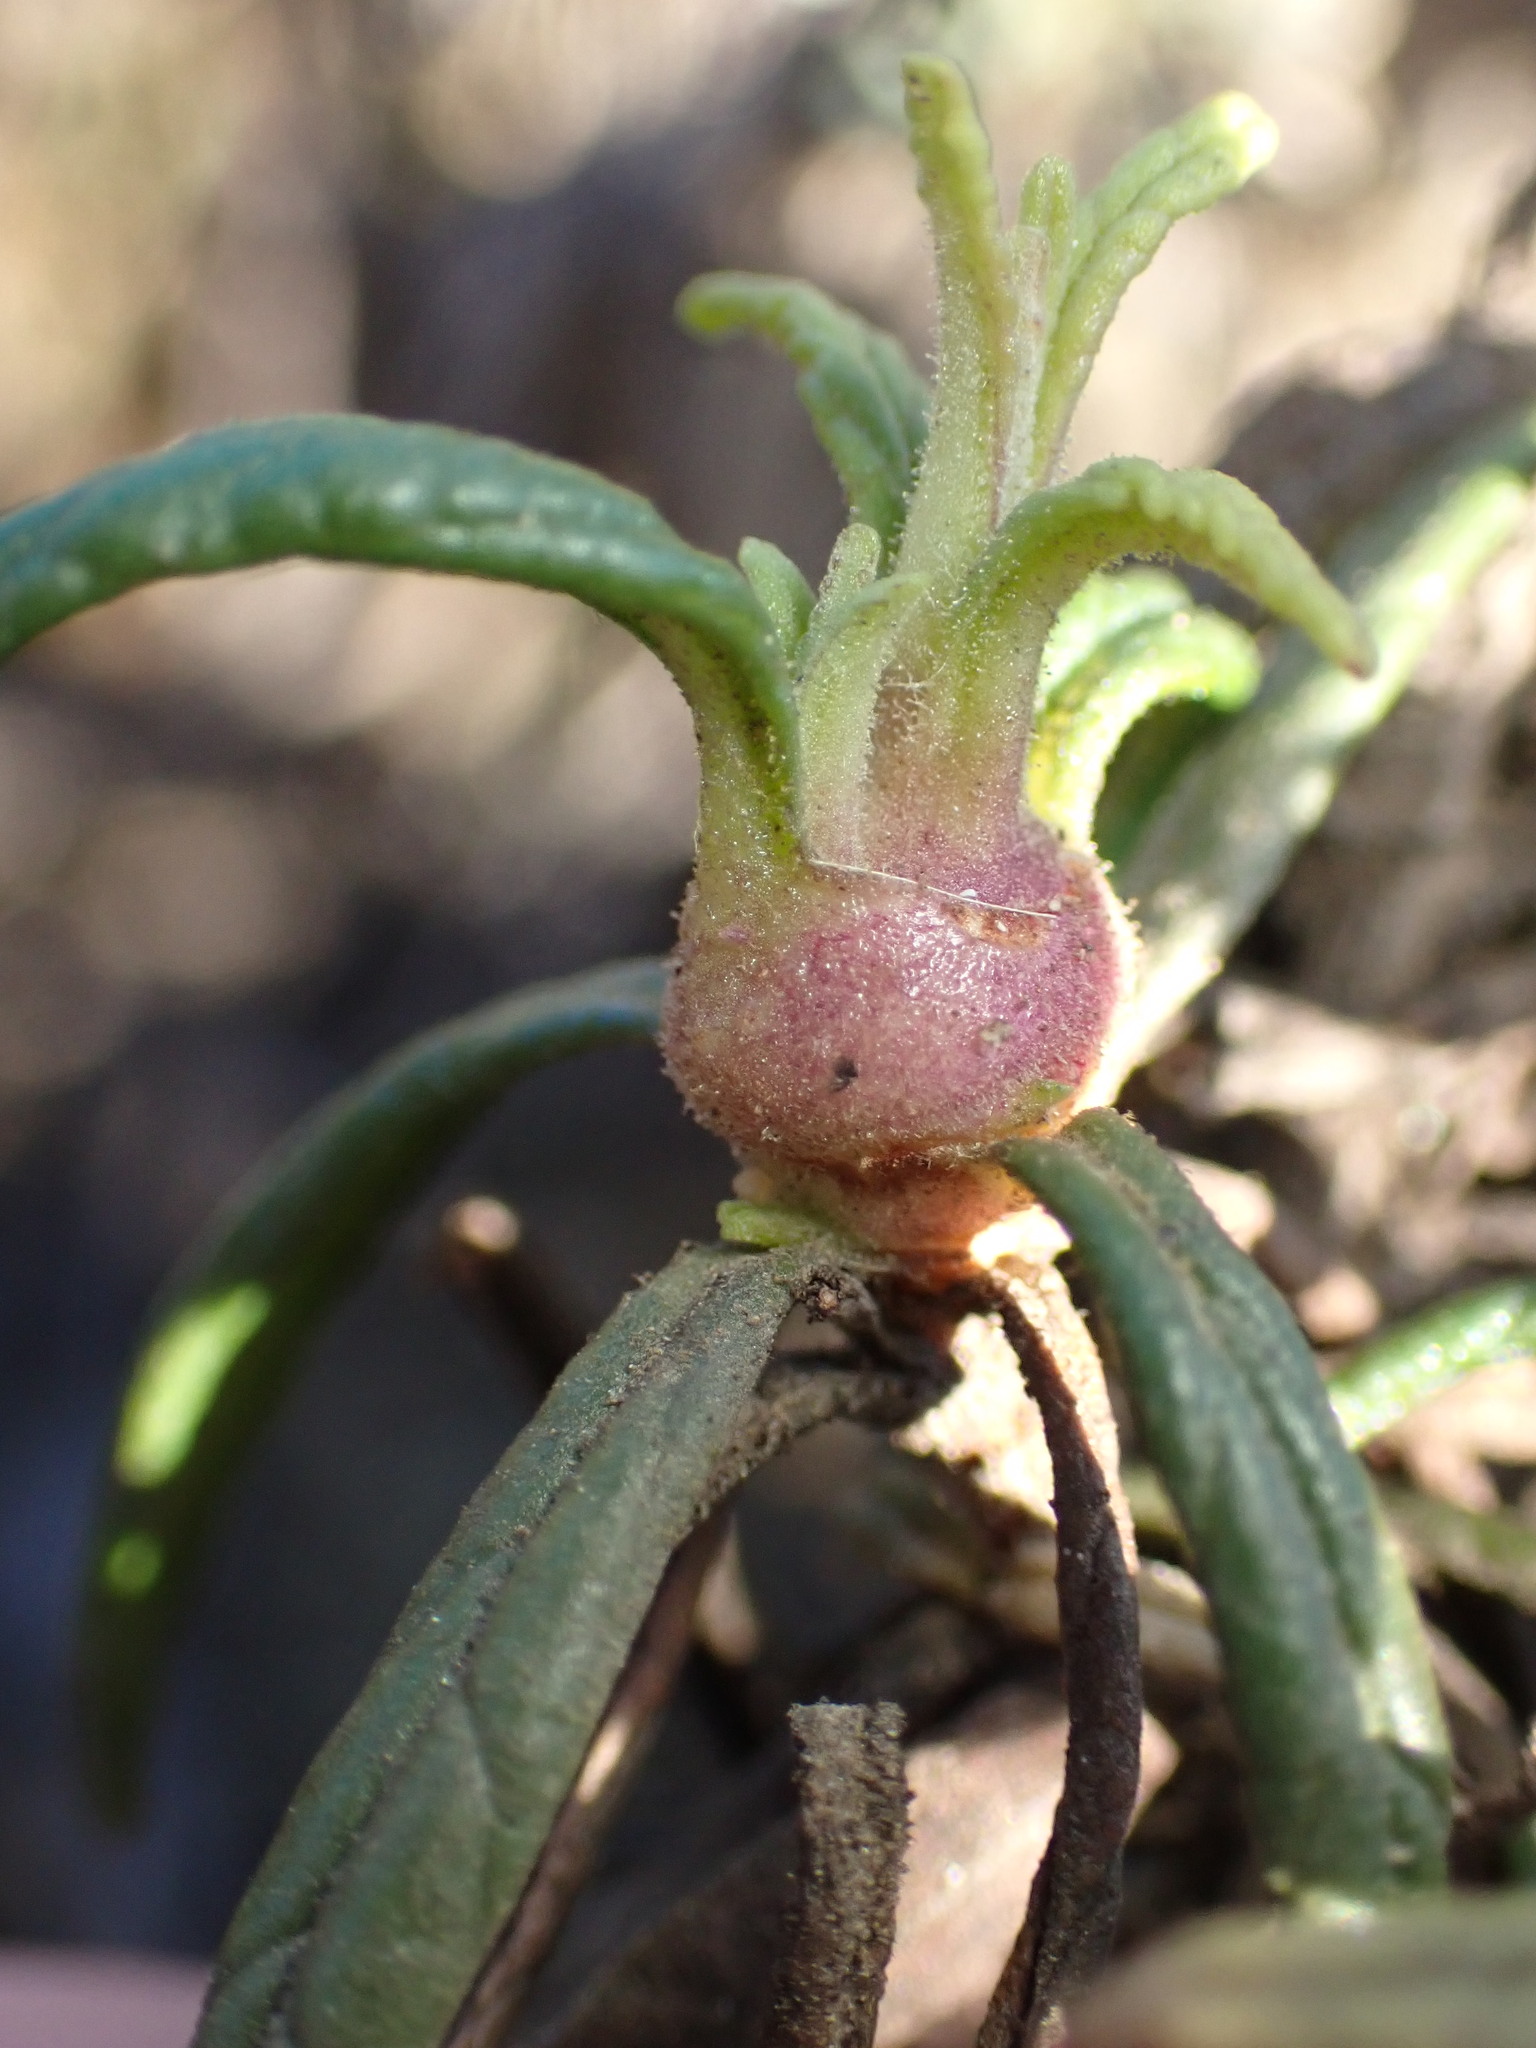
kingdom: Animalia
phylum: Arthropoda
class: Insecta
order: Diptera
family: Cecidomyiidae
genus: Neolasioptera
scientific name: Neolasioptera mimuli
